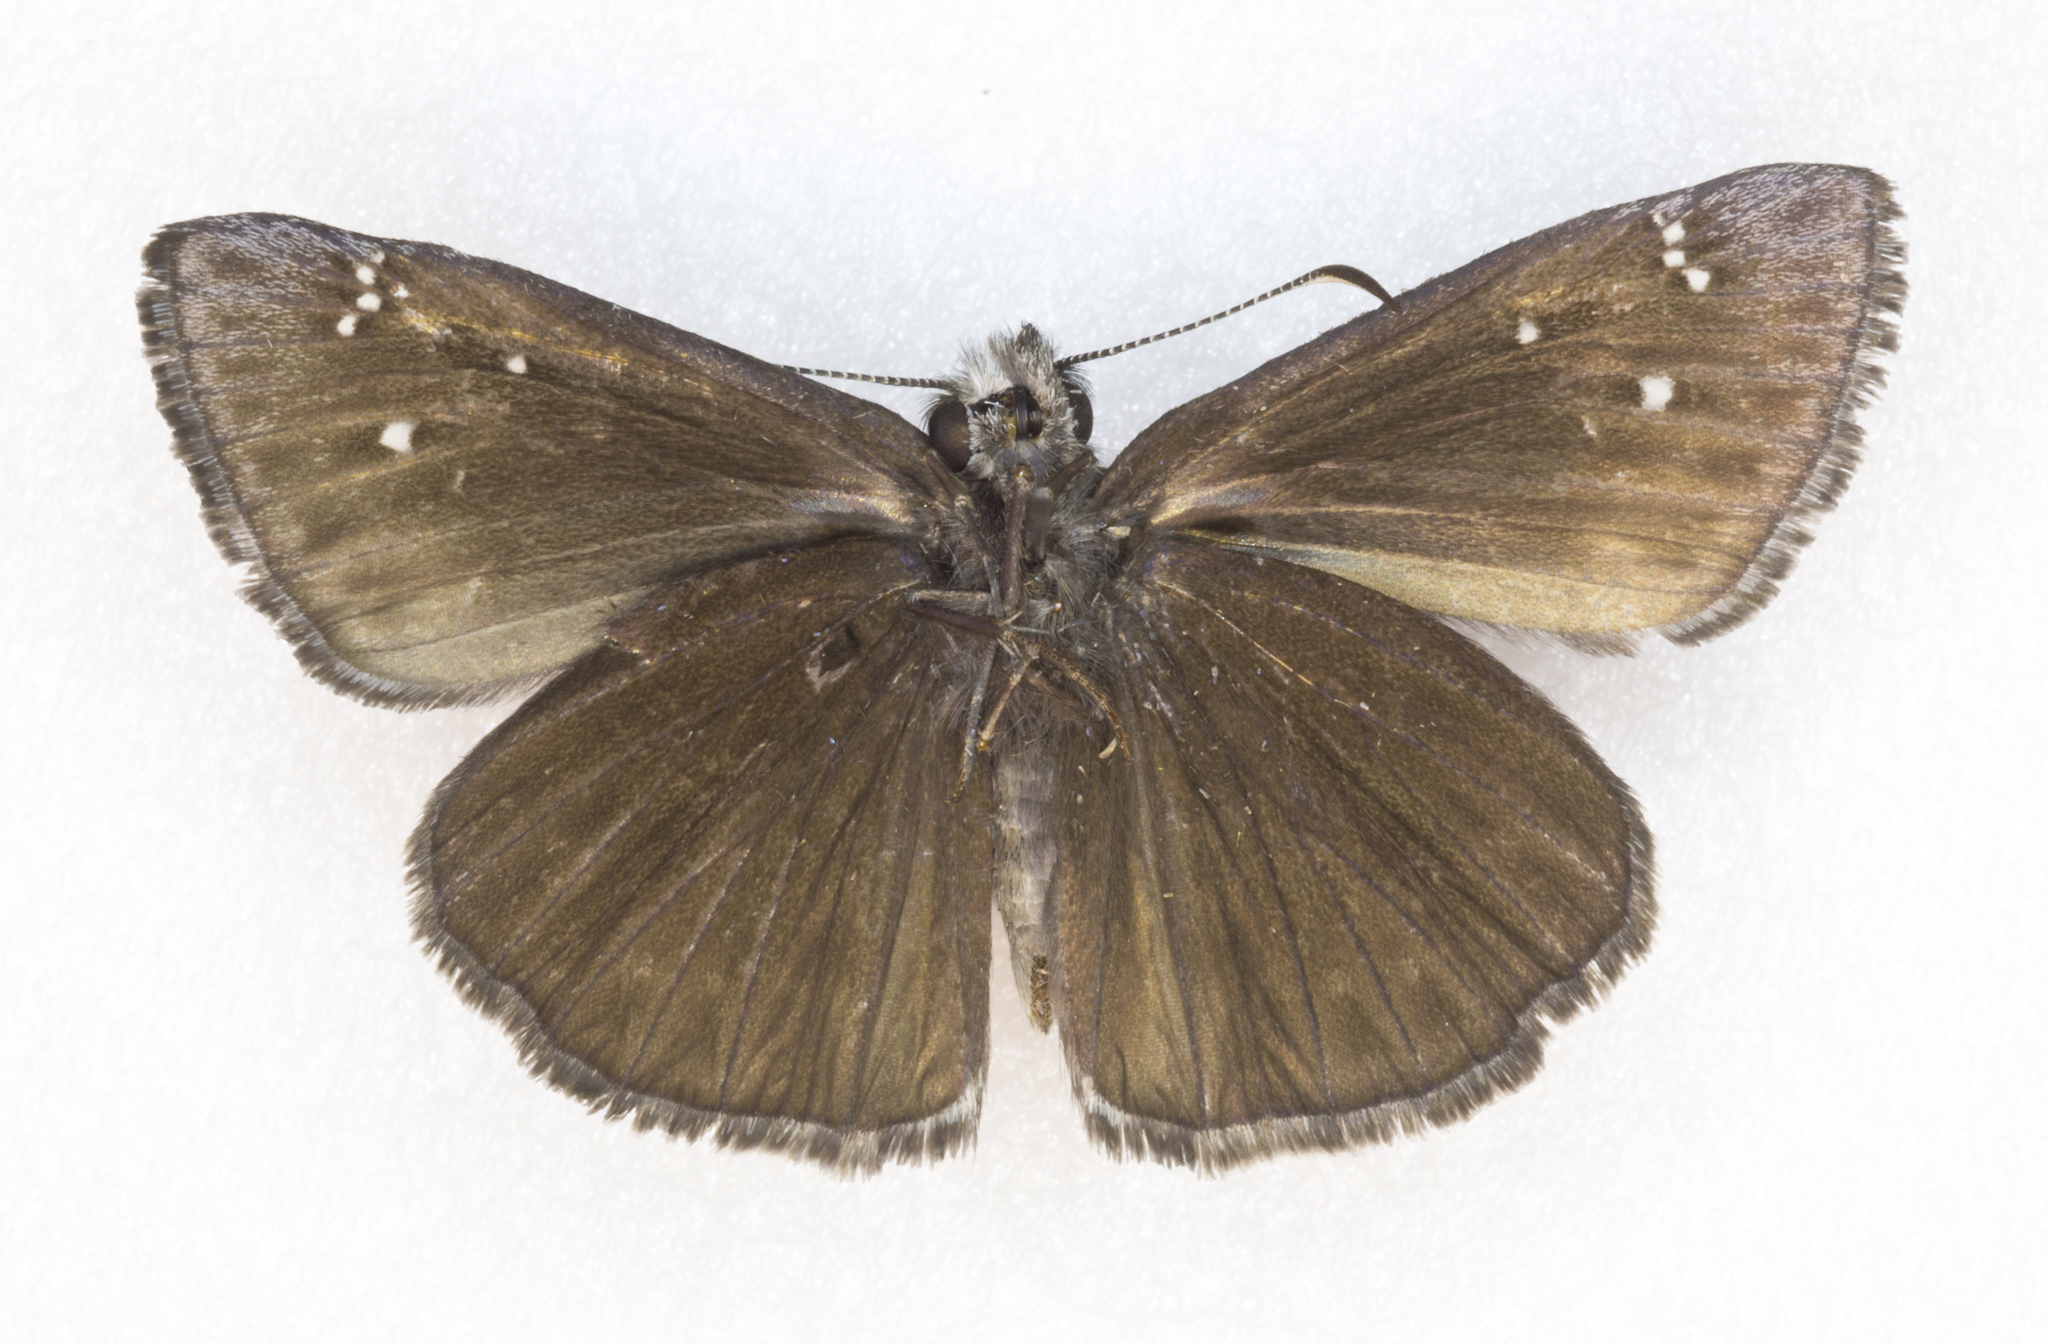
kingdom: Animalia
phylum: Arthropoda
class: Insecta
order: Lepidoptera
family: Hesperiidae
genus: Erynnis
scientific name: Erynnis meridianus
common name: Meridian duskywing
